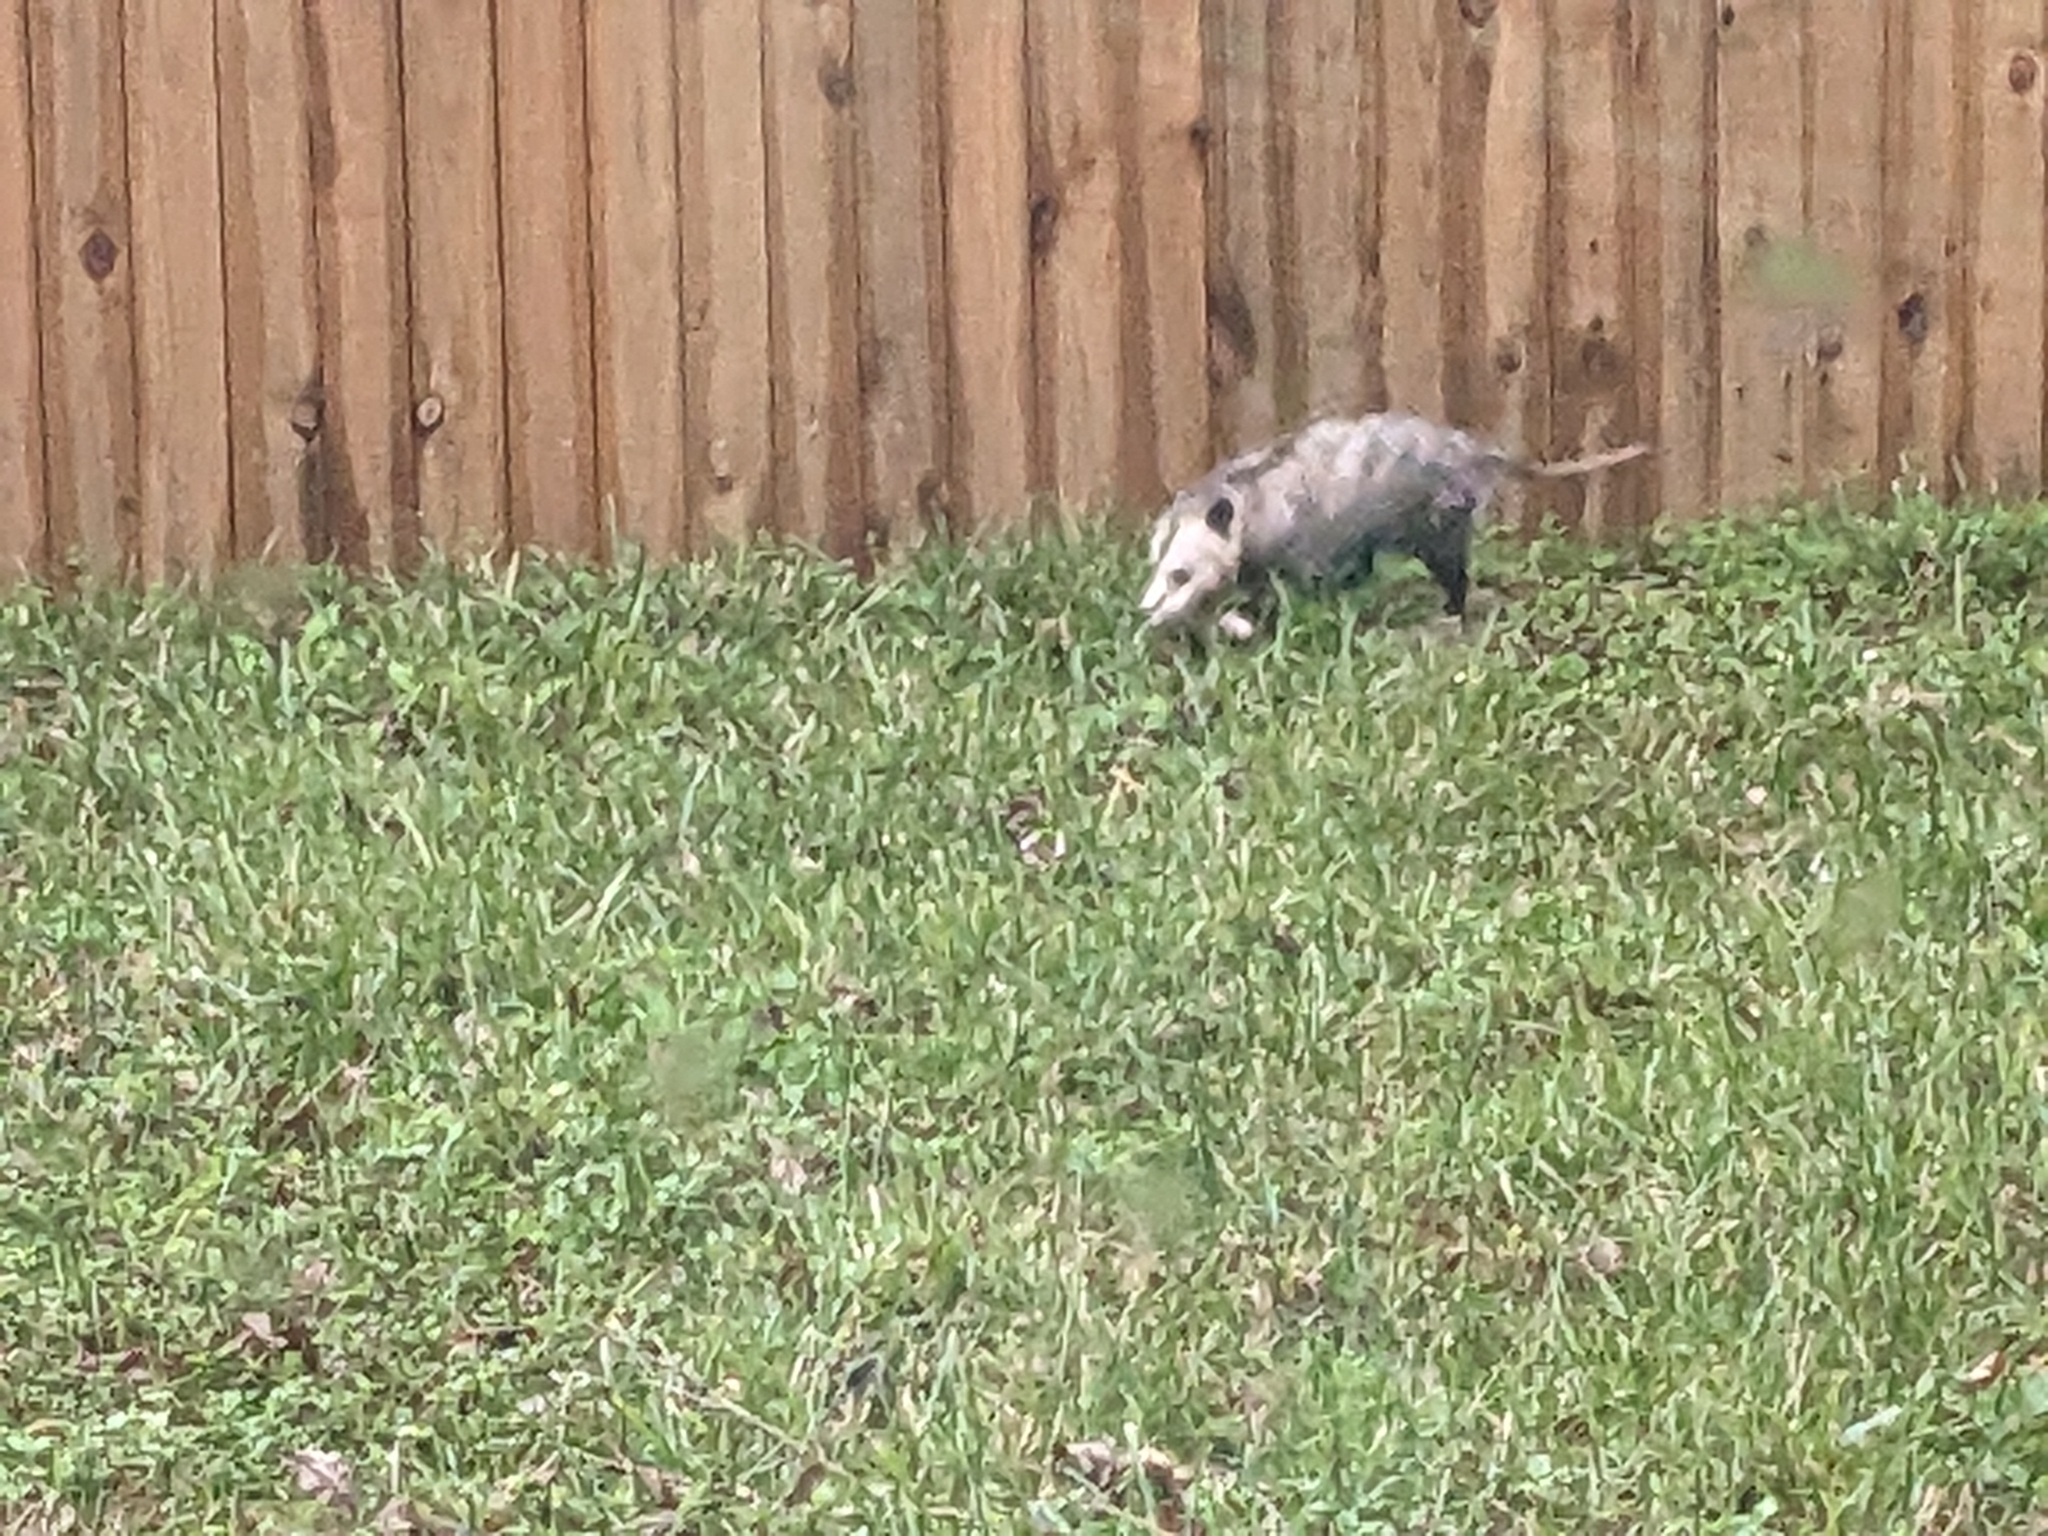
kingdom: Animalia
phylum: Chordata
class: Mammalia
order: Didelphimorphia
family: Didelphidae
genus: Didelphis
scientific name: Didelphis virginiana
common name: Virginia opossum
